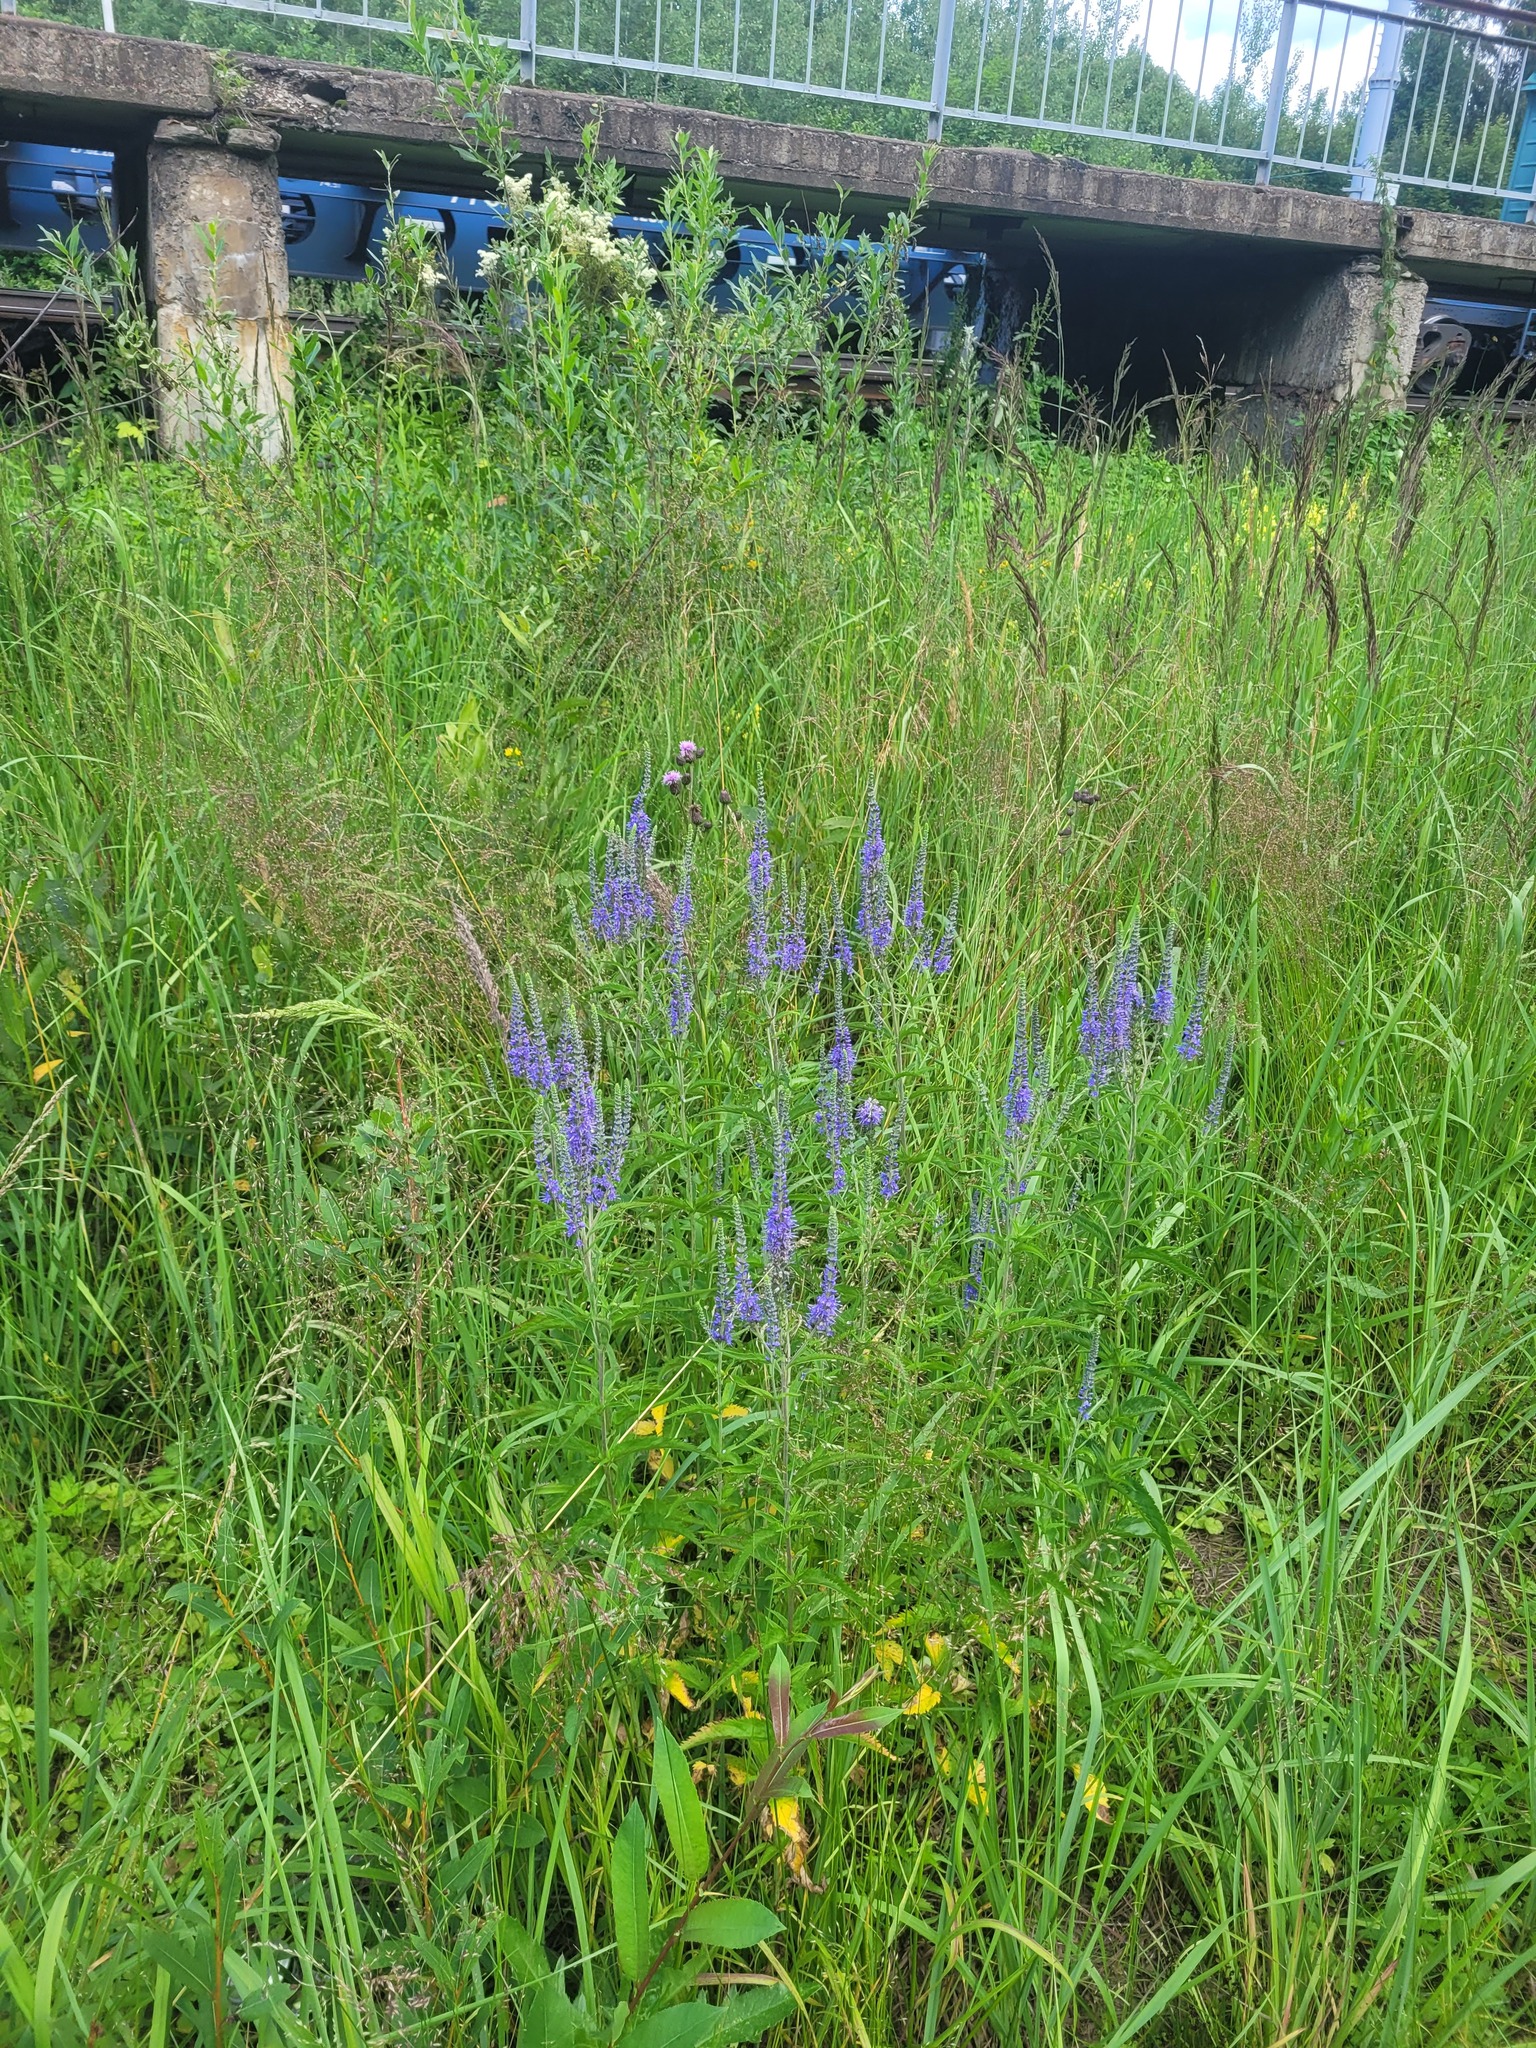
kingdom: Plantae
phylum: Tracheophyta
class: Magnoliopsida
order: Lamiales
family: Plantaginaceae
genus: Veronica
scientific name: Veronica longifolia
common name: Garden speedwell
